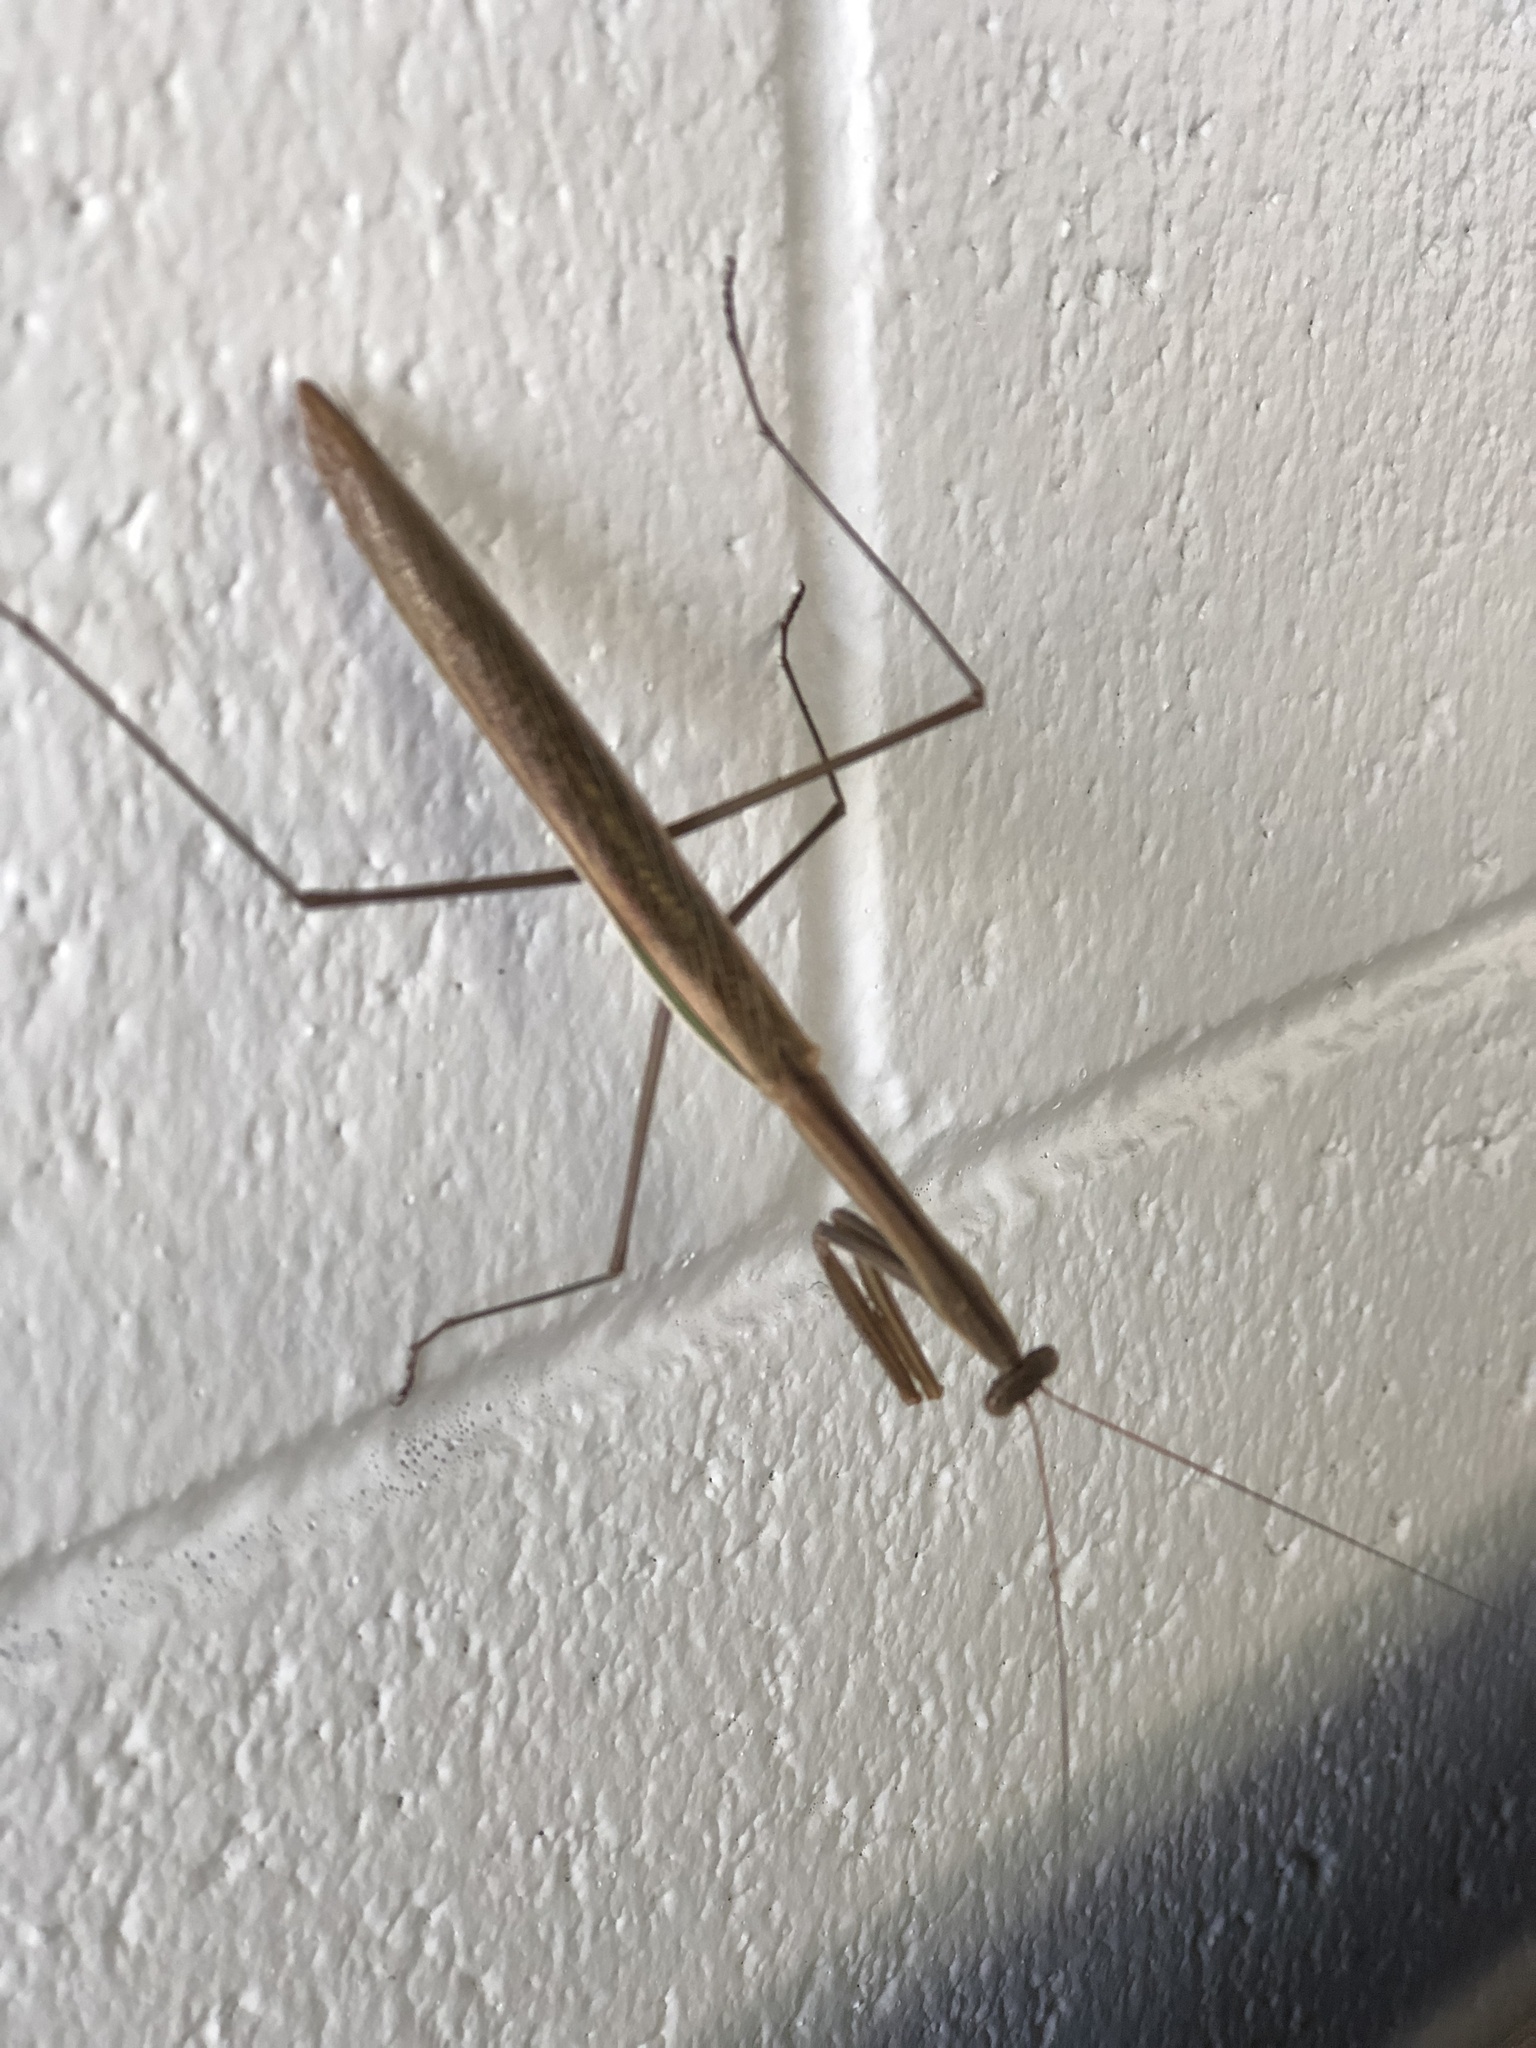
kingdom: Animalia
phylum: Arthropoda
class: Insecta
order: Mantodea
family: Mantidae
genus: Tenodera
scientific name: Tenodera australasiae
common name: Purple-winged mantis
